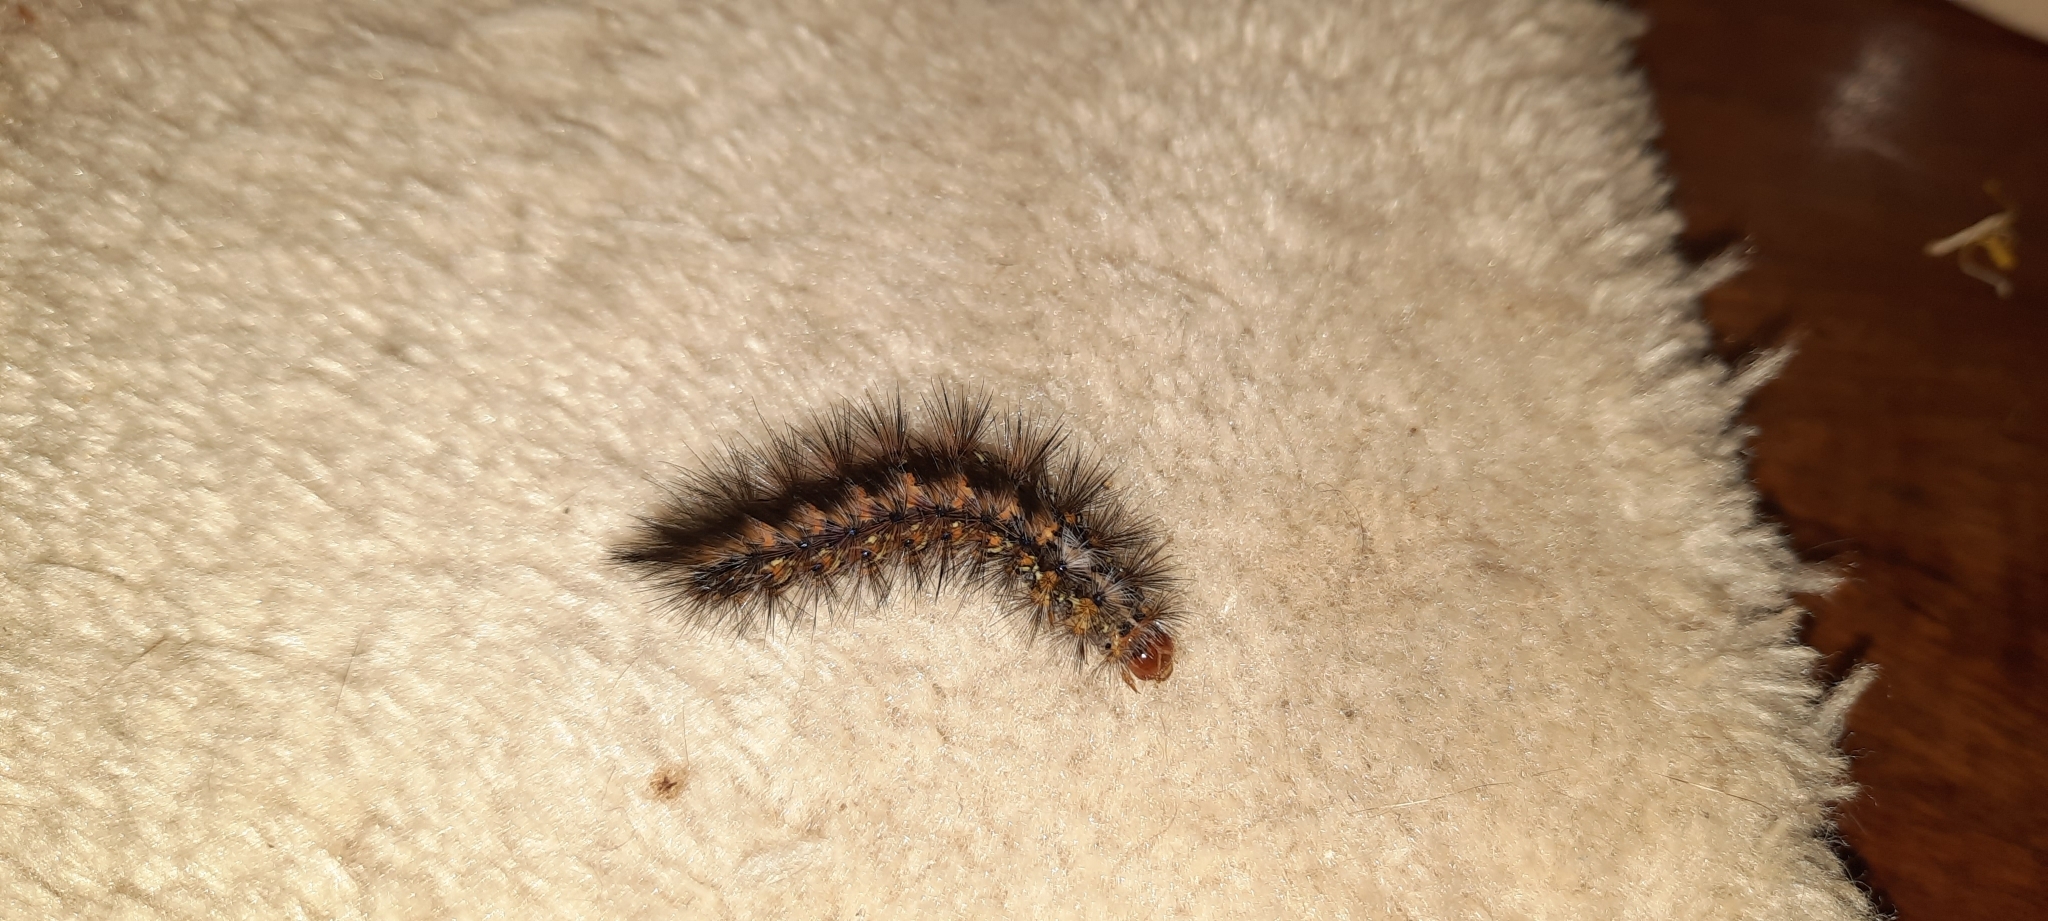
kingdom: Animalia
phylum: Arthropoda
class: Insecta
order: Lepidoptera
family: Erebidae
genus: Paralacydes
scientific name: Paralacydes vocula
